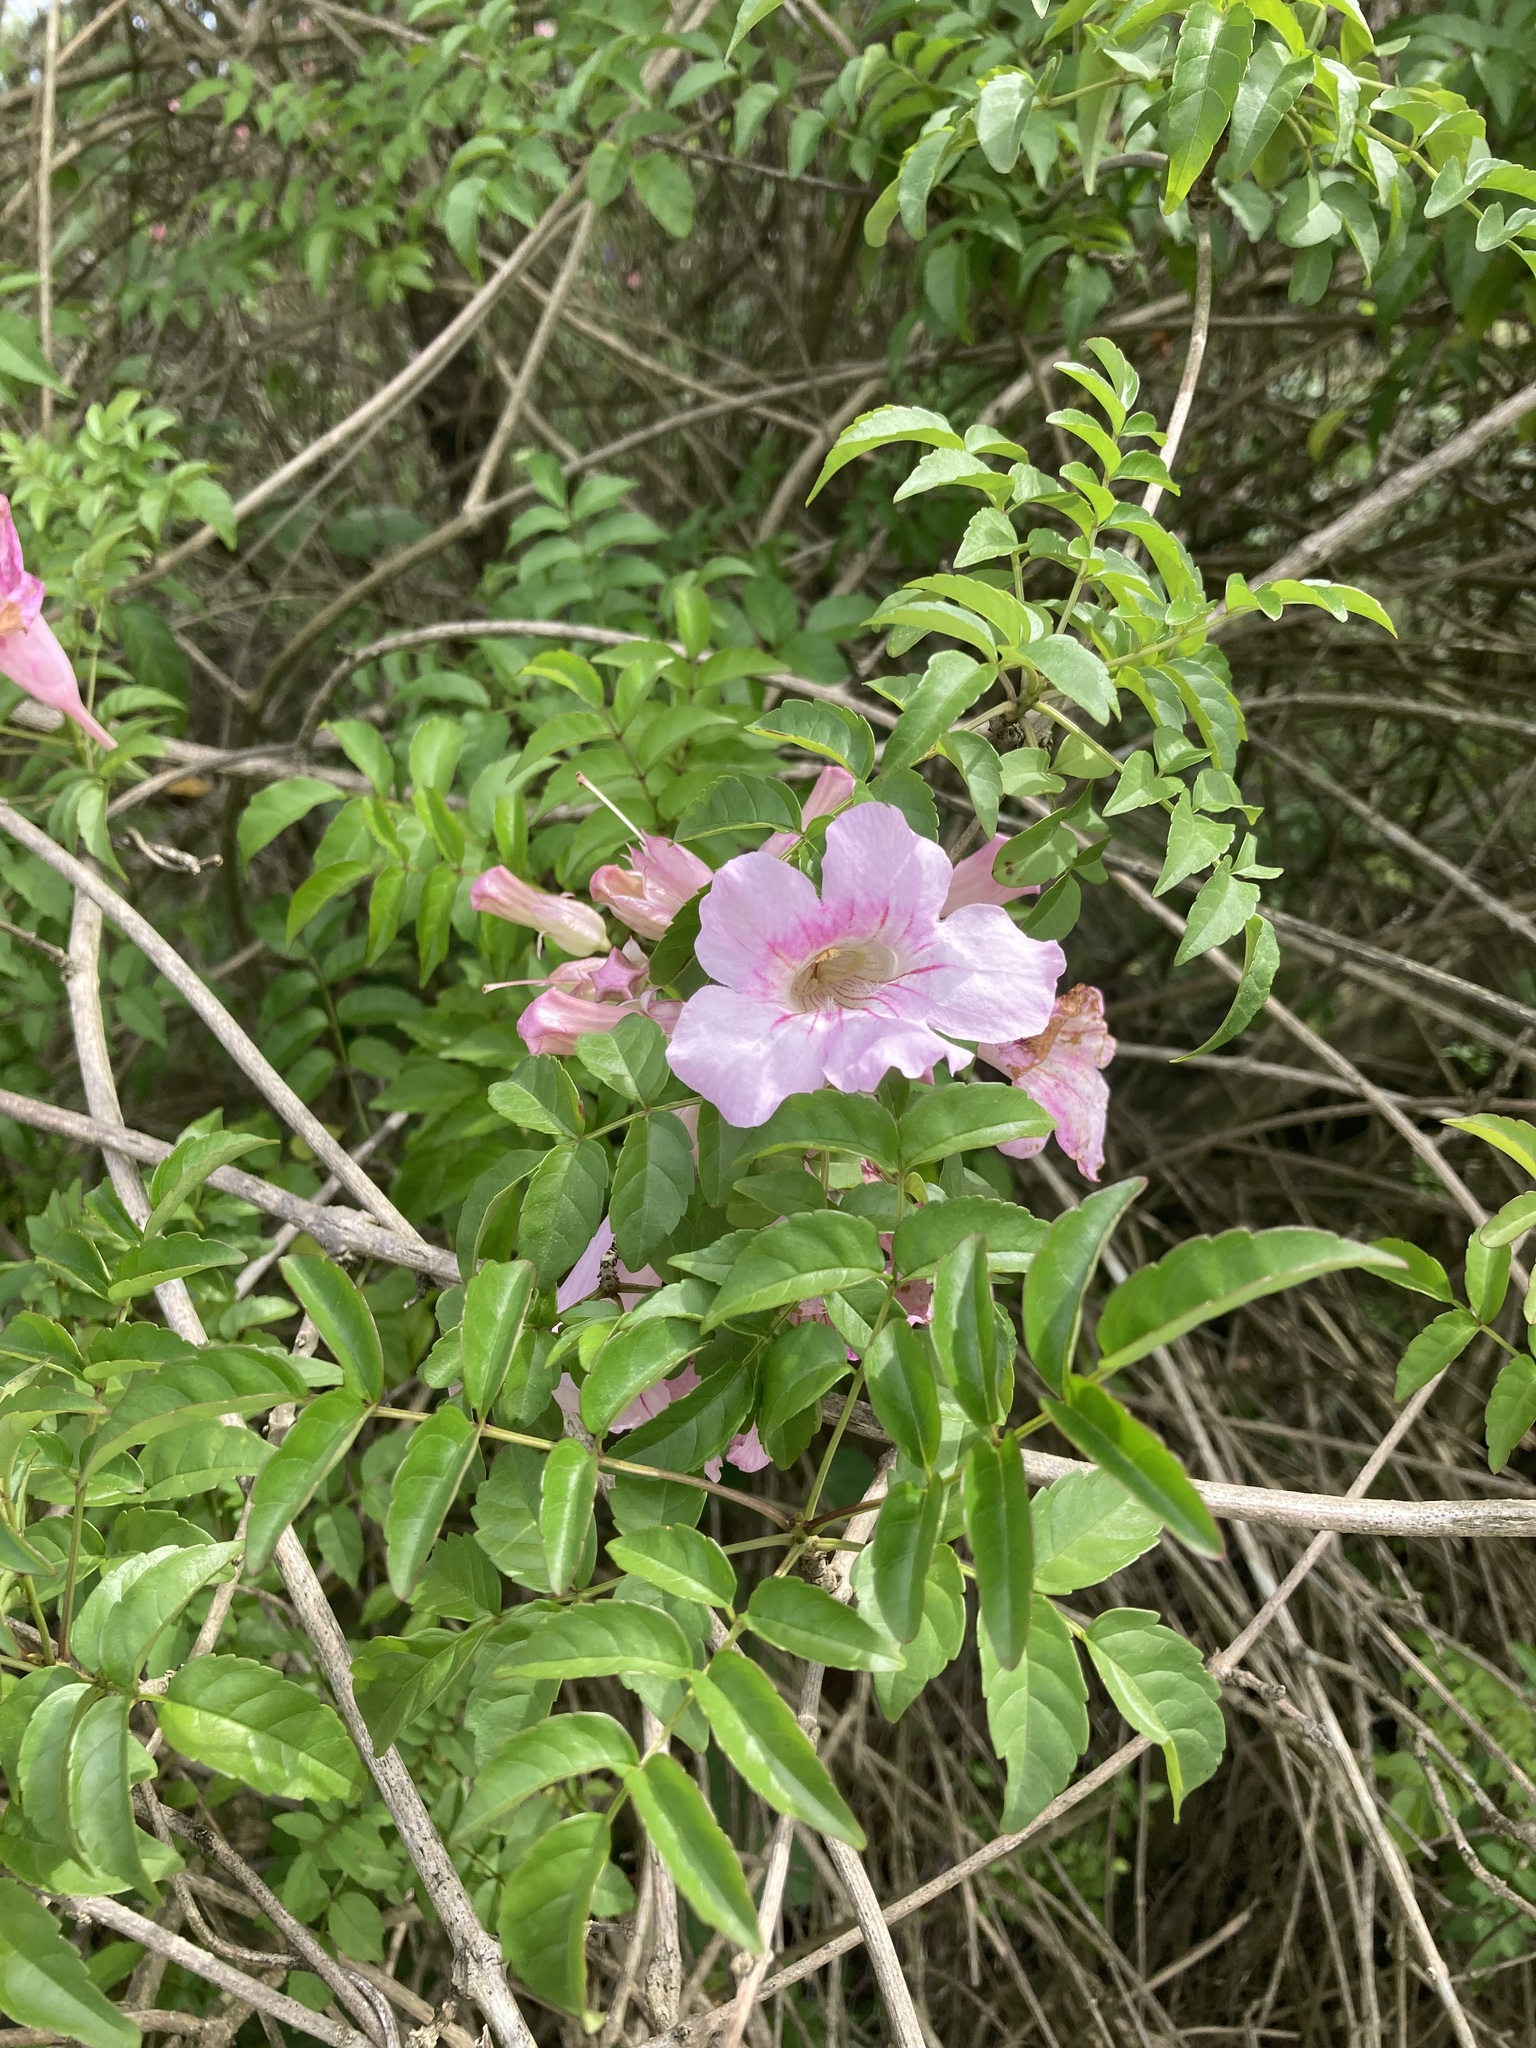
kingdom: Plantae
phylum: Tracheophyta
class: Magnoliopsida
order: Lamiales
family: Bignoniaceae
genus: Podranea
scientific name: Podranea ricasoliana
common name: Zimbabwe creeper
